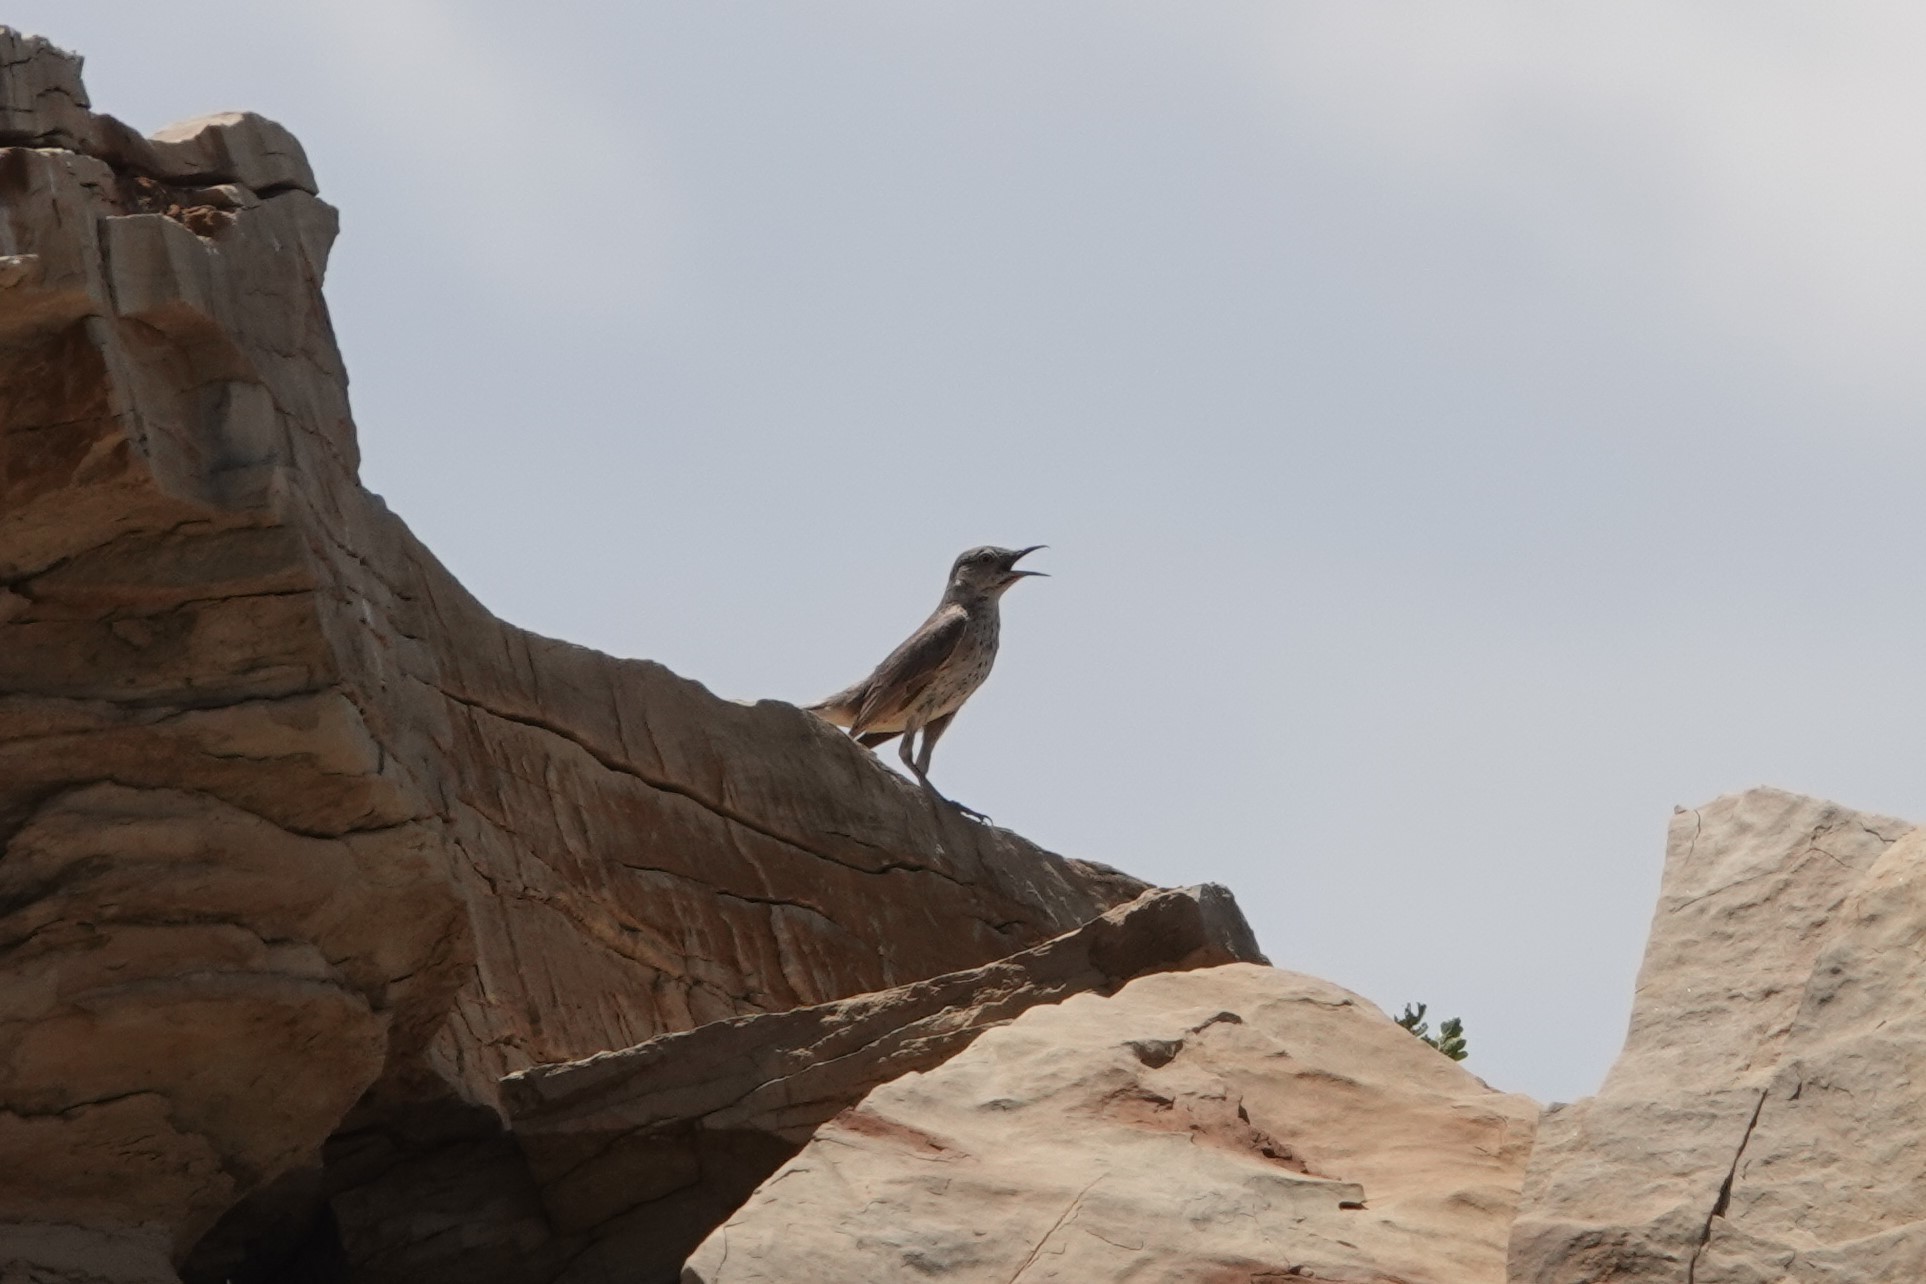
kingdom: Animalia
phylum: Chordata
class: Aves
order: Passeriformes
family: Mimidae
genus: Oreoscoptes
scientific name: Oreoscoptes montanus
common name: Sage thrasher
